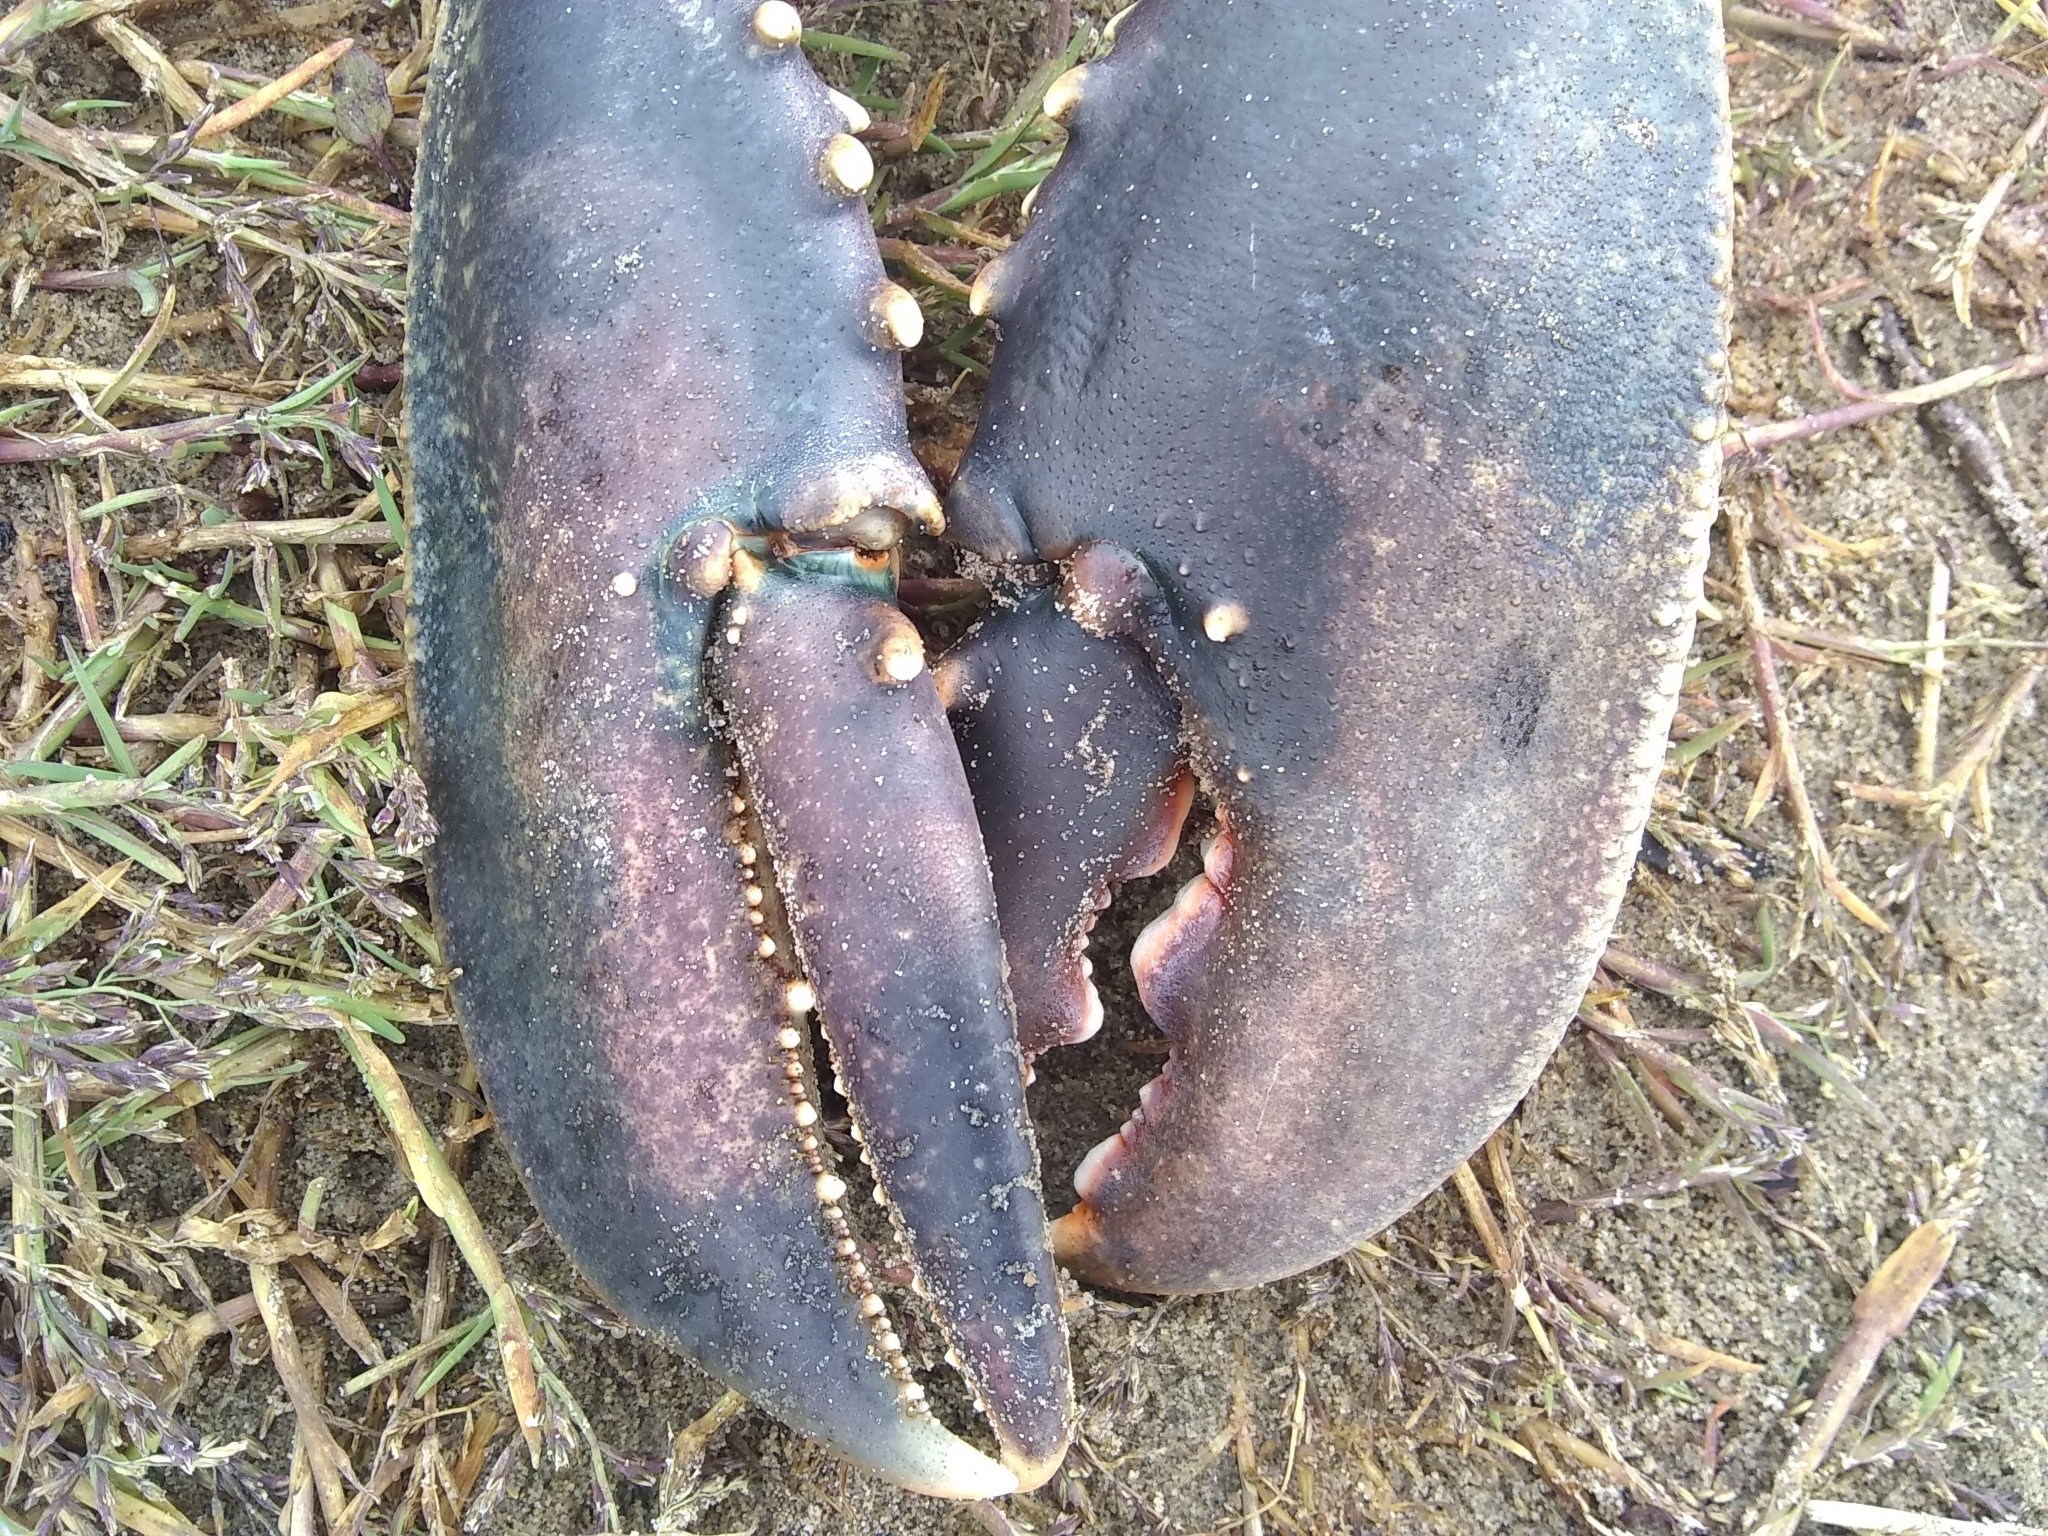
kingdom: Animalia
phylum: Arthropoda
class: Malacostraca
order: Decapoda
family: Nephropidae
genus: Homarus
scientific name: Homarus gammarus
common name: European lobster
